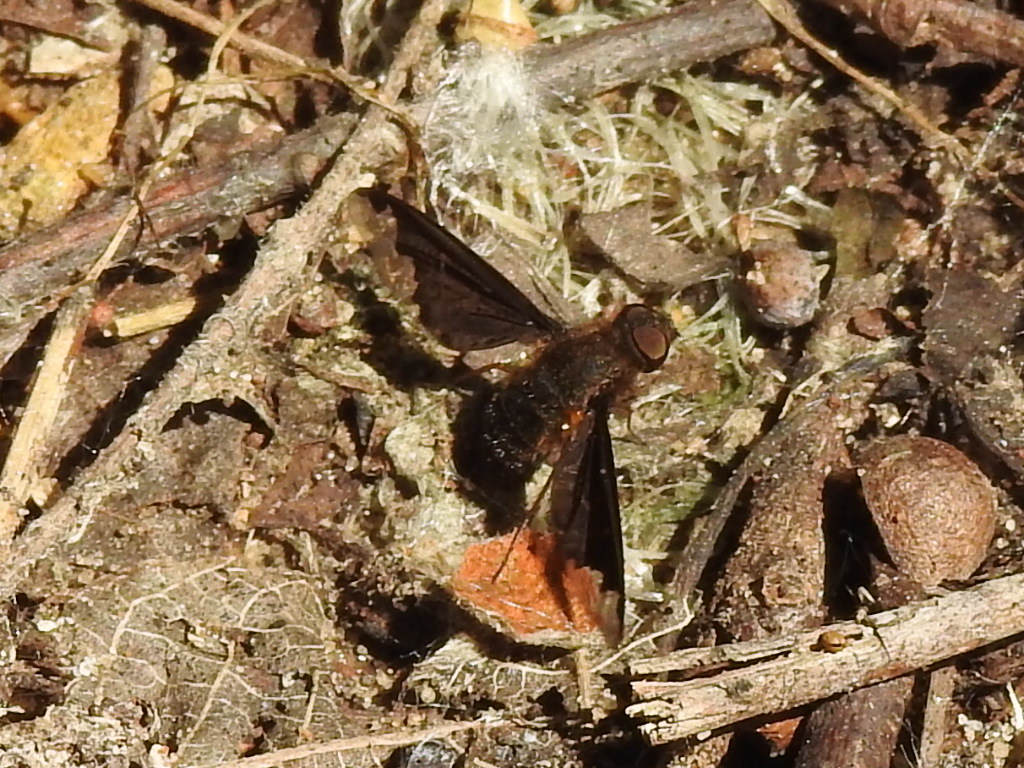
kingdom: Animalia
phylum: Arthropoda
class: Insecta
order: Diptera
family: Bombyliidae
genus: Hemipenthes
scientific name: Hemipenthes sinuosus
